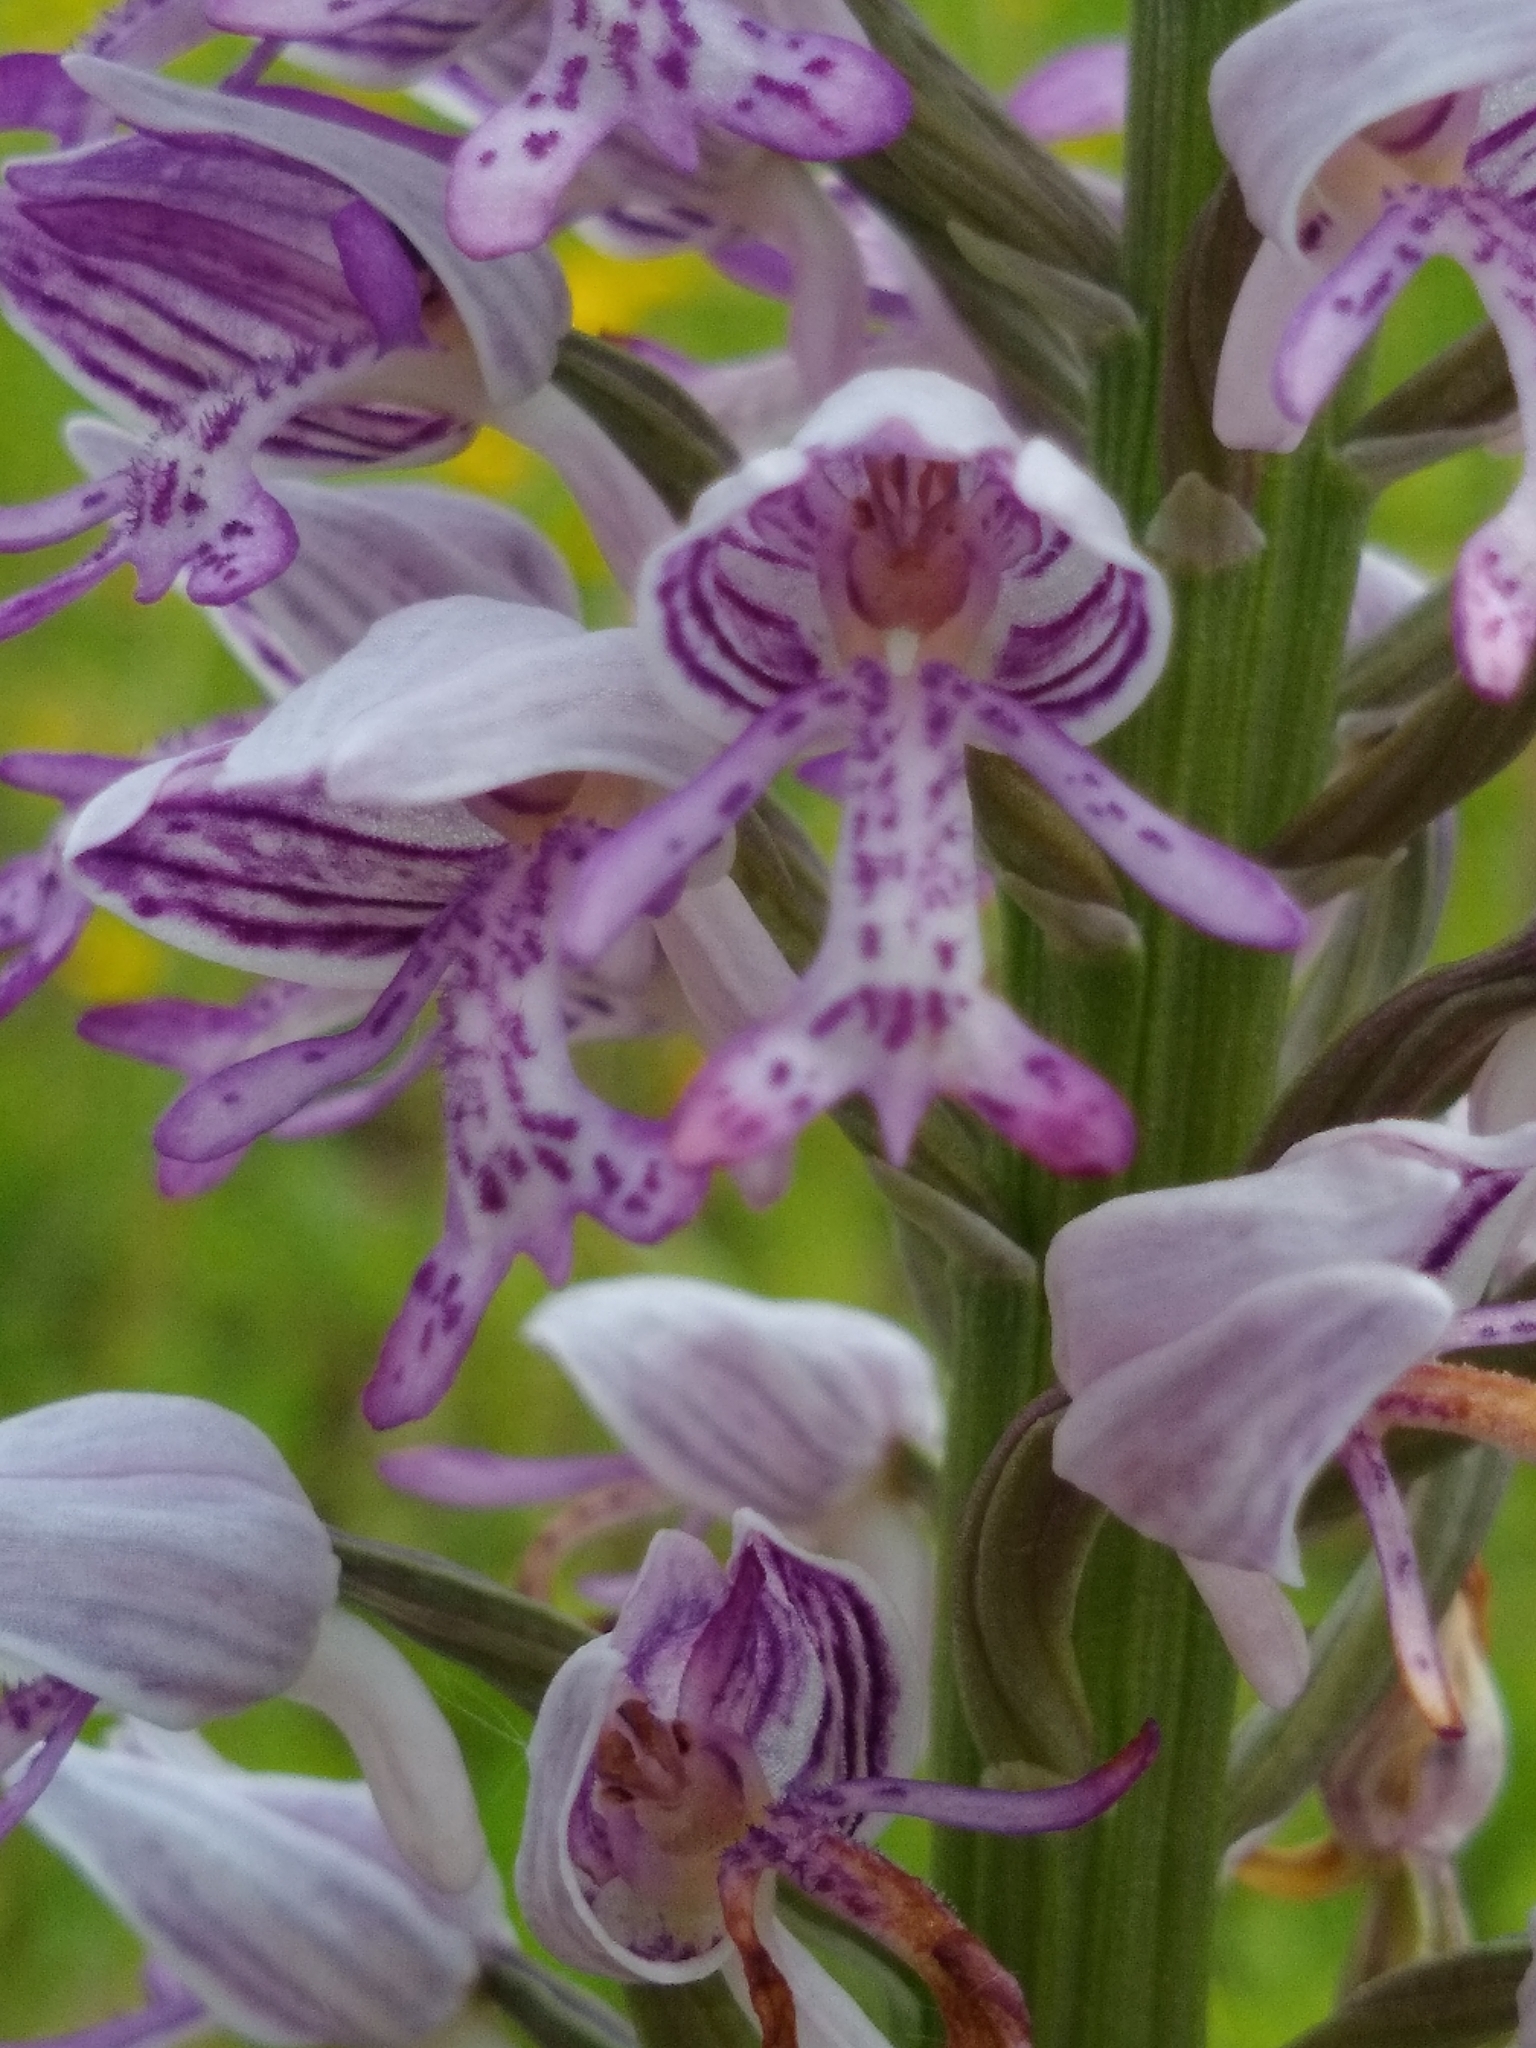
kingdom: Plantae
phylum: Tracheophyta
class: Liliopsida
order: Asparagales
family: Orchidaceae
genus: Orchis
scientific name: Orchis militaris
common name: Military orchid
